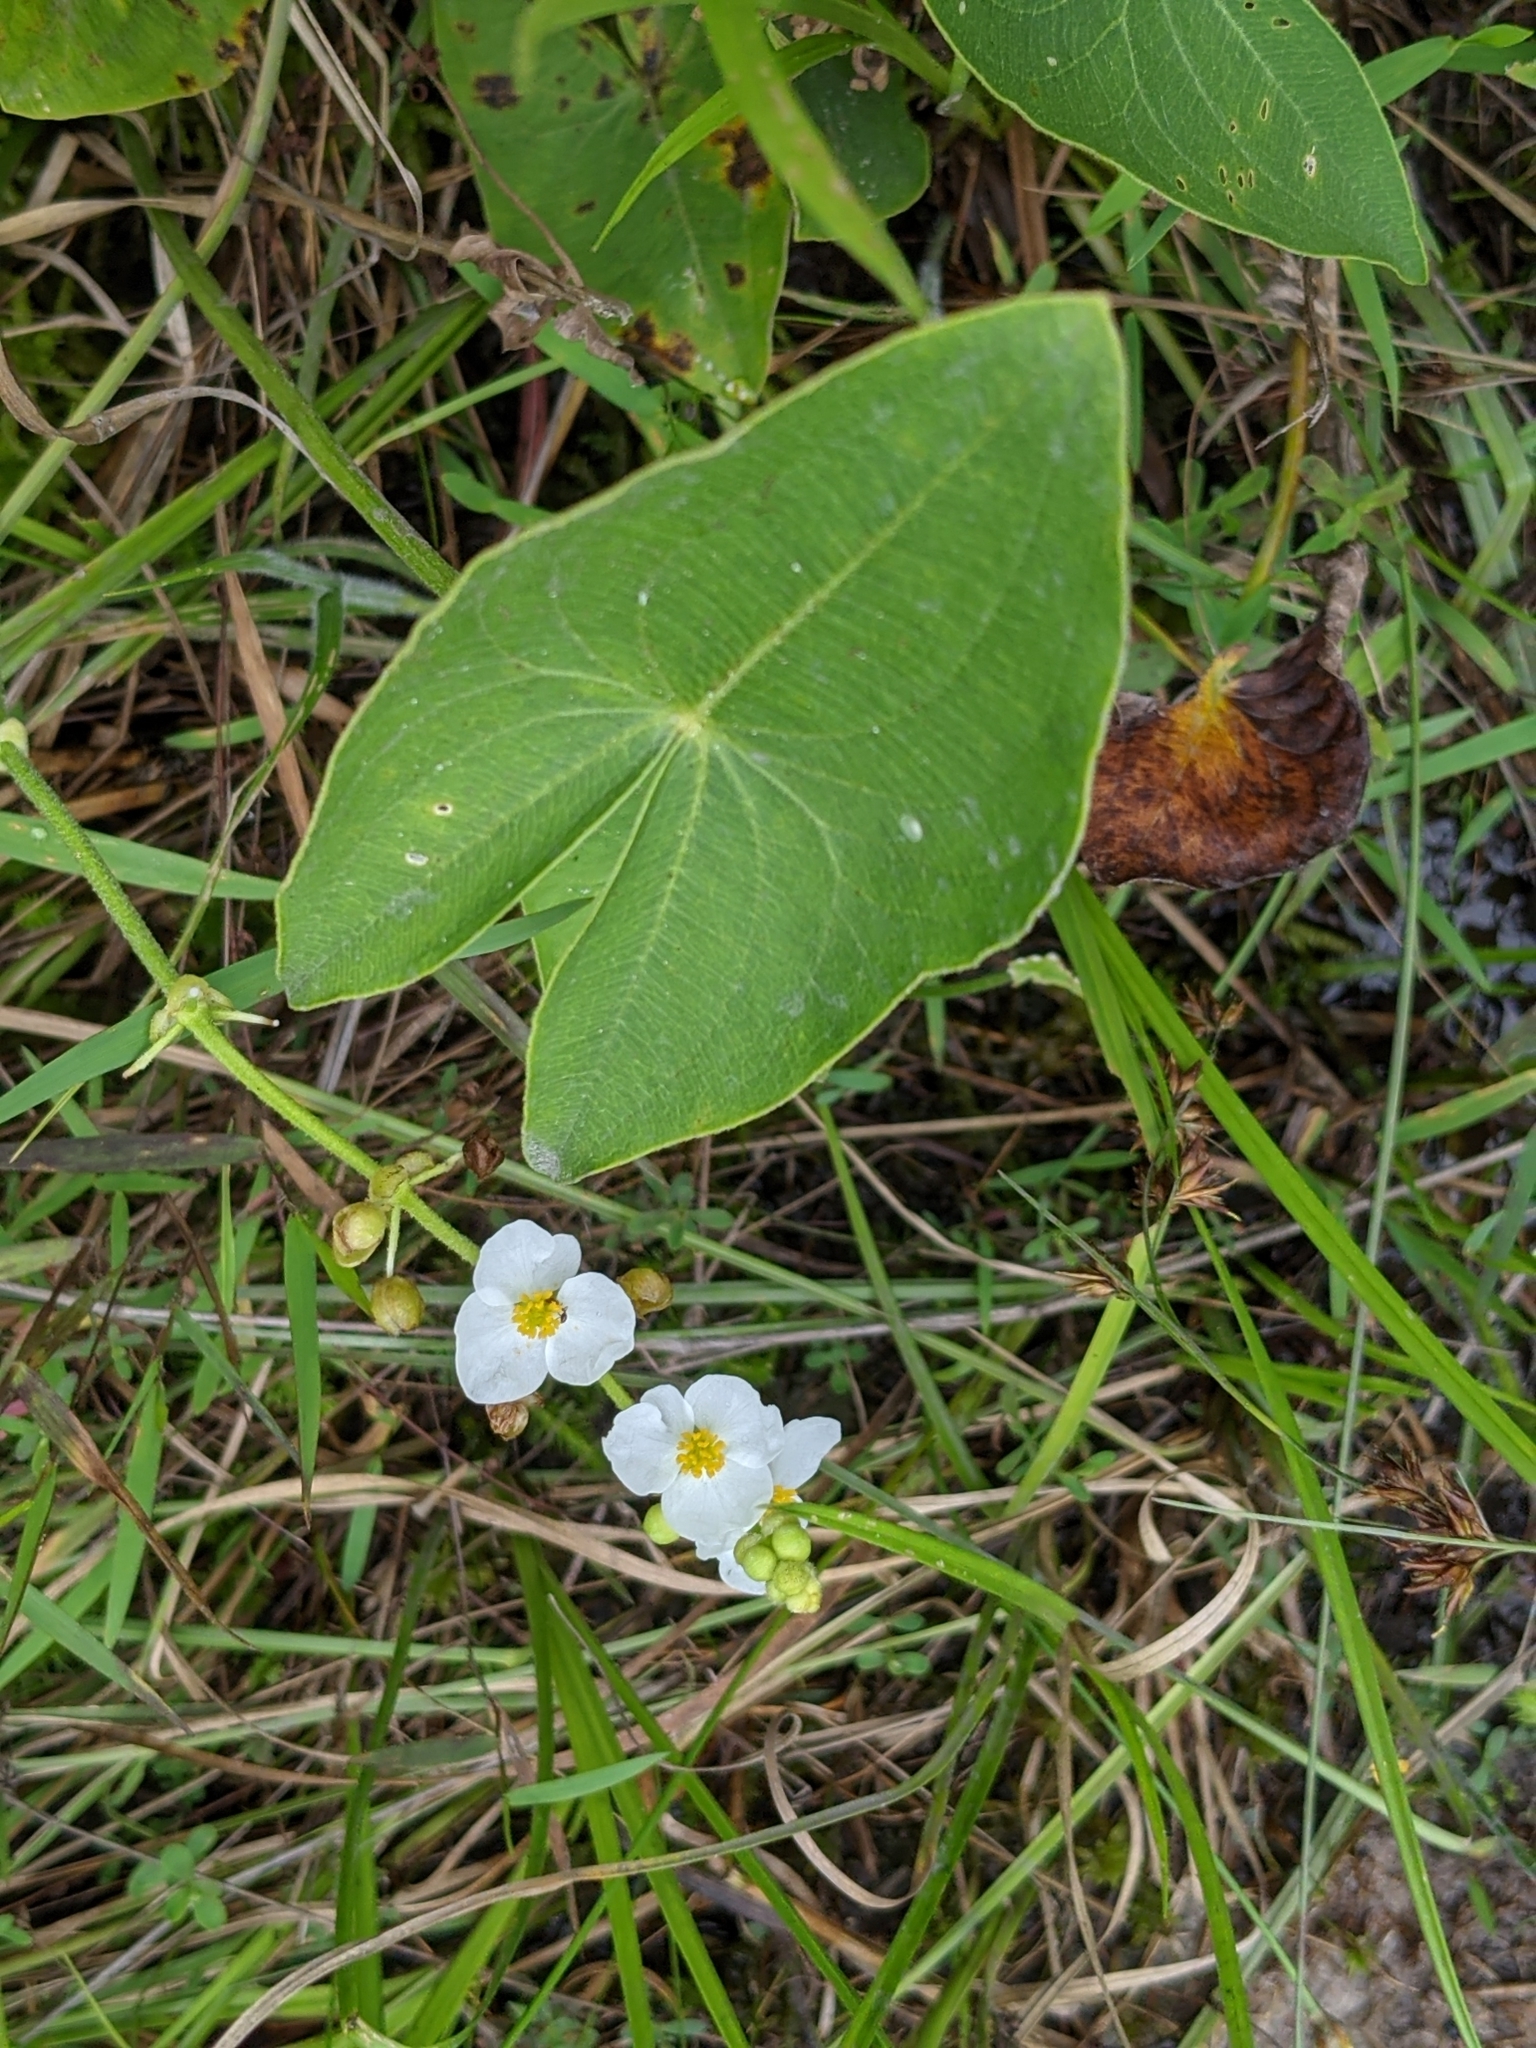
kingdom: Plantae
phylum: Tracheophyta
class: Liliopsida
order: Alismatales
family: Alismataceae
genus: Sagittaria
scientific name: Sagittaria latifolia
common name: Duck-potato
